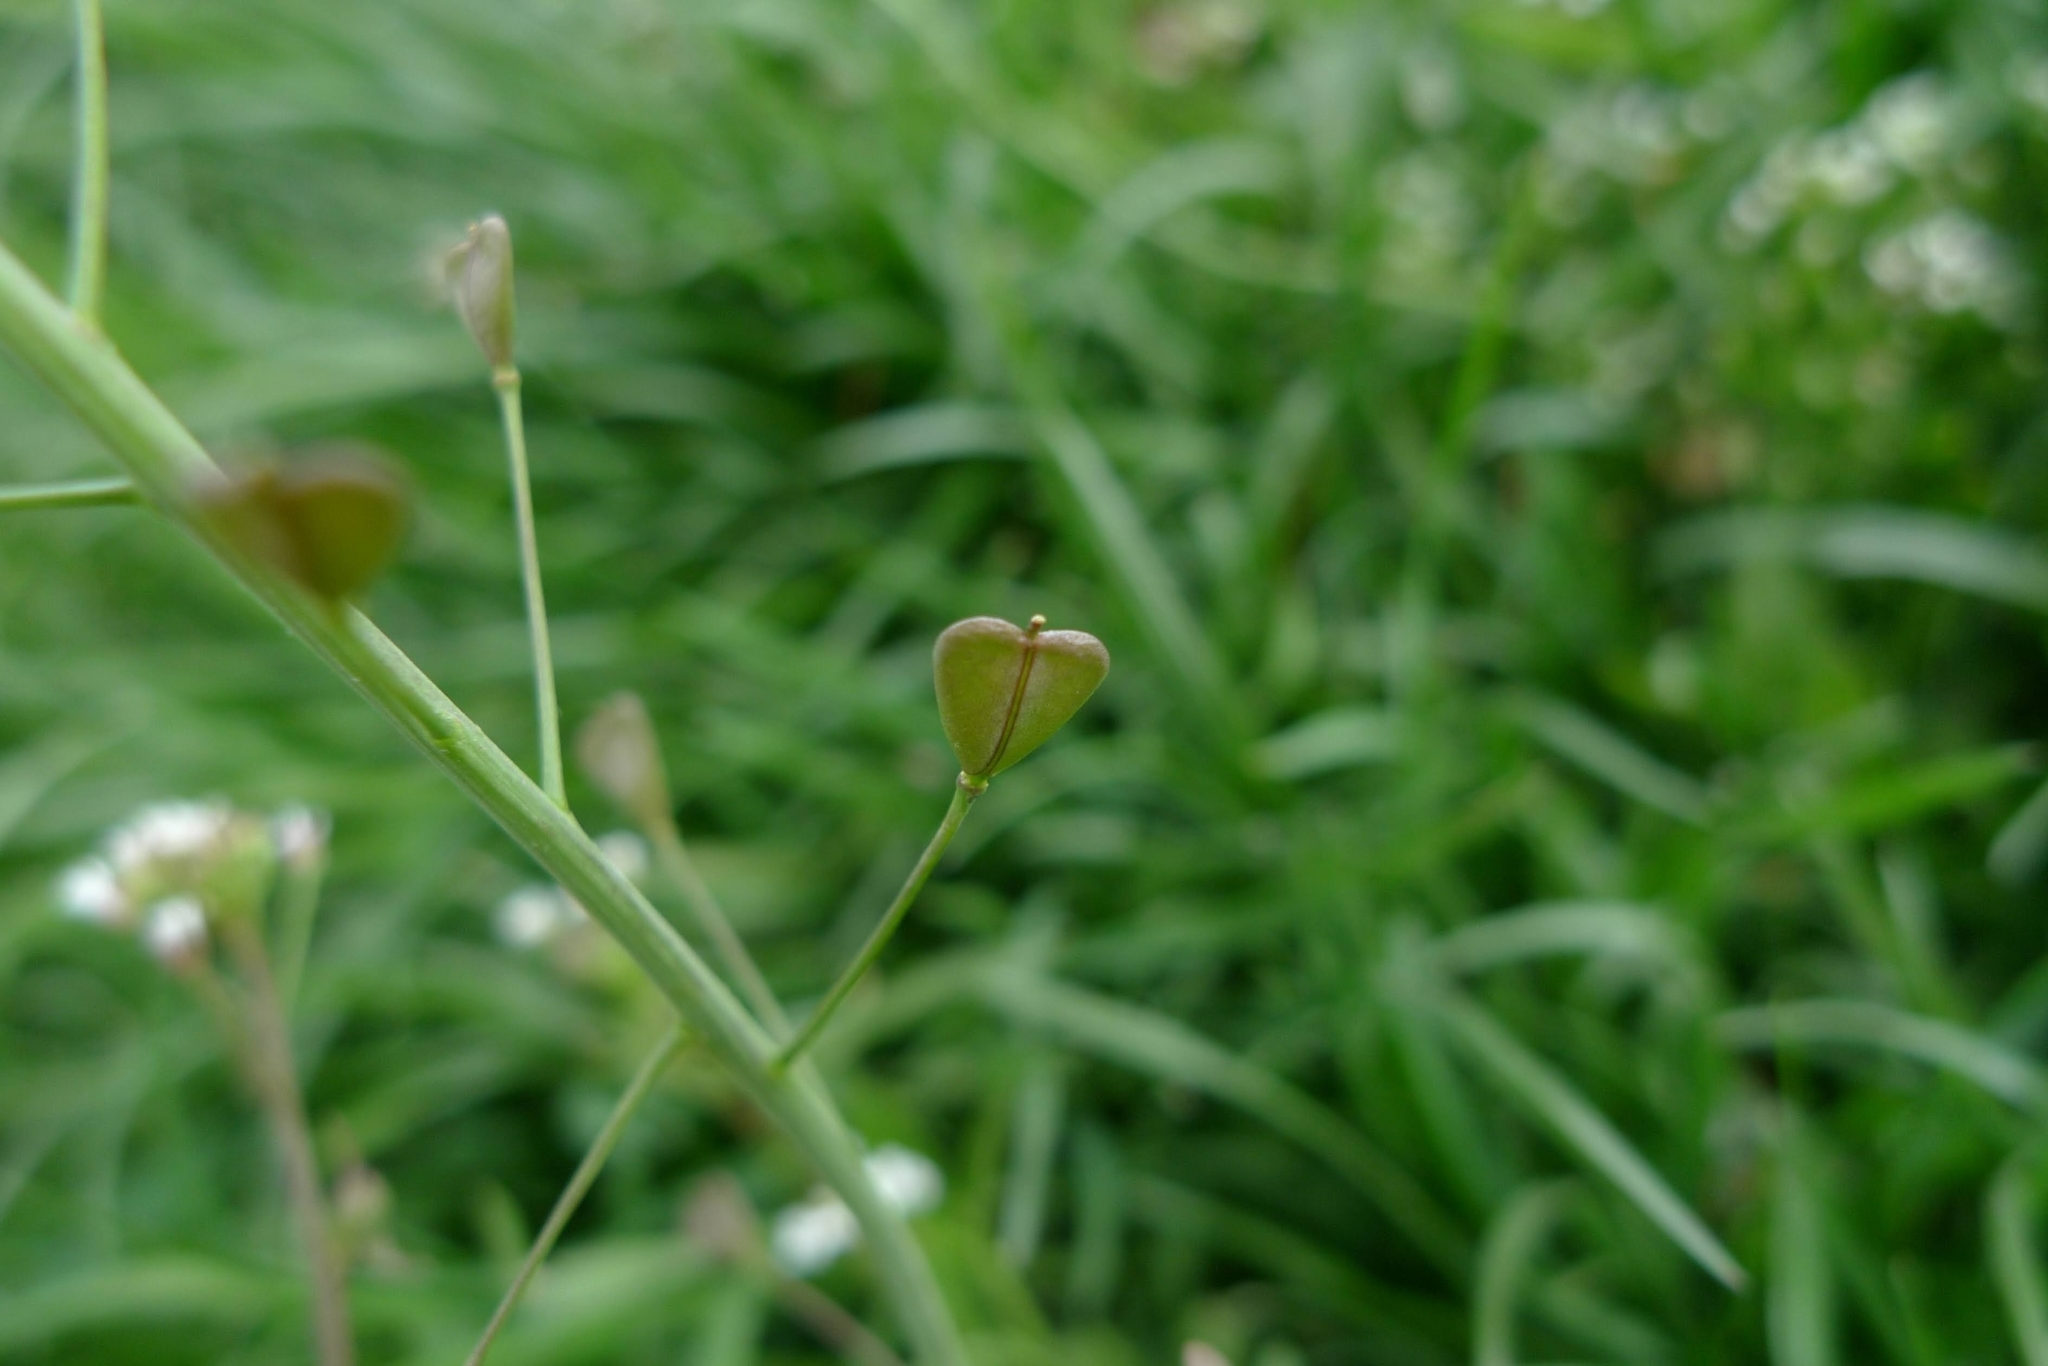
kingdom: Plantae
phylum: Tracheophyta
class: Magnoliopsida
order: Brassicales
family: Brassicaceae
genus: Capsella
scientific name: Capsella bursa-pastoris
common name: Shepherd's purse
